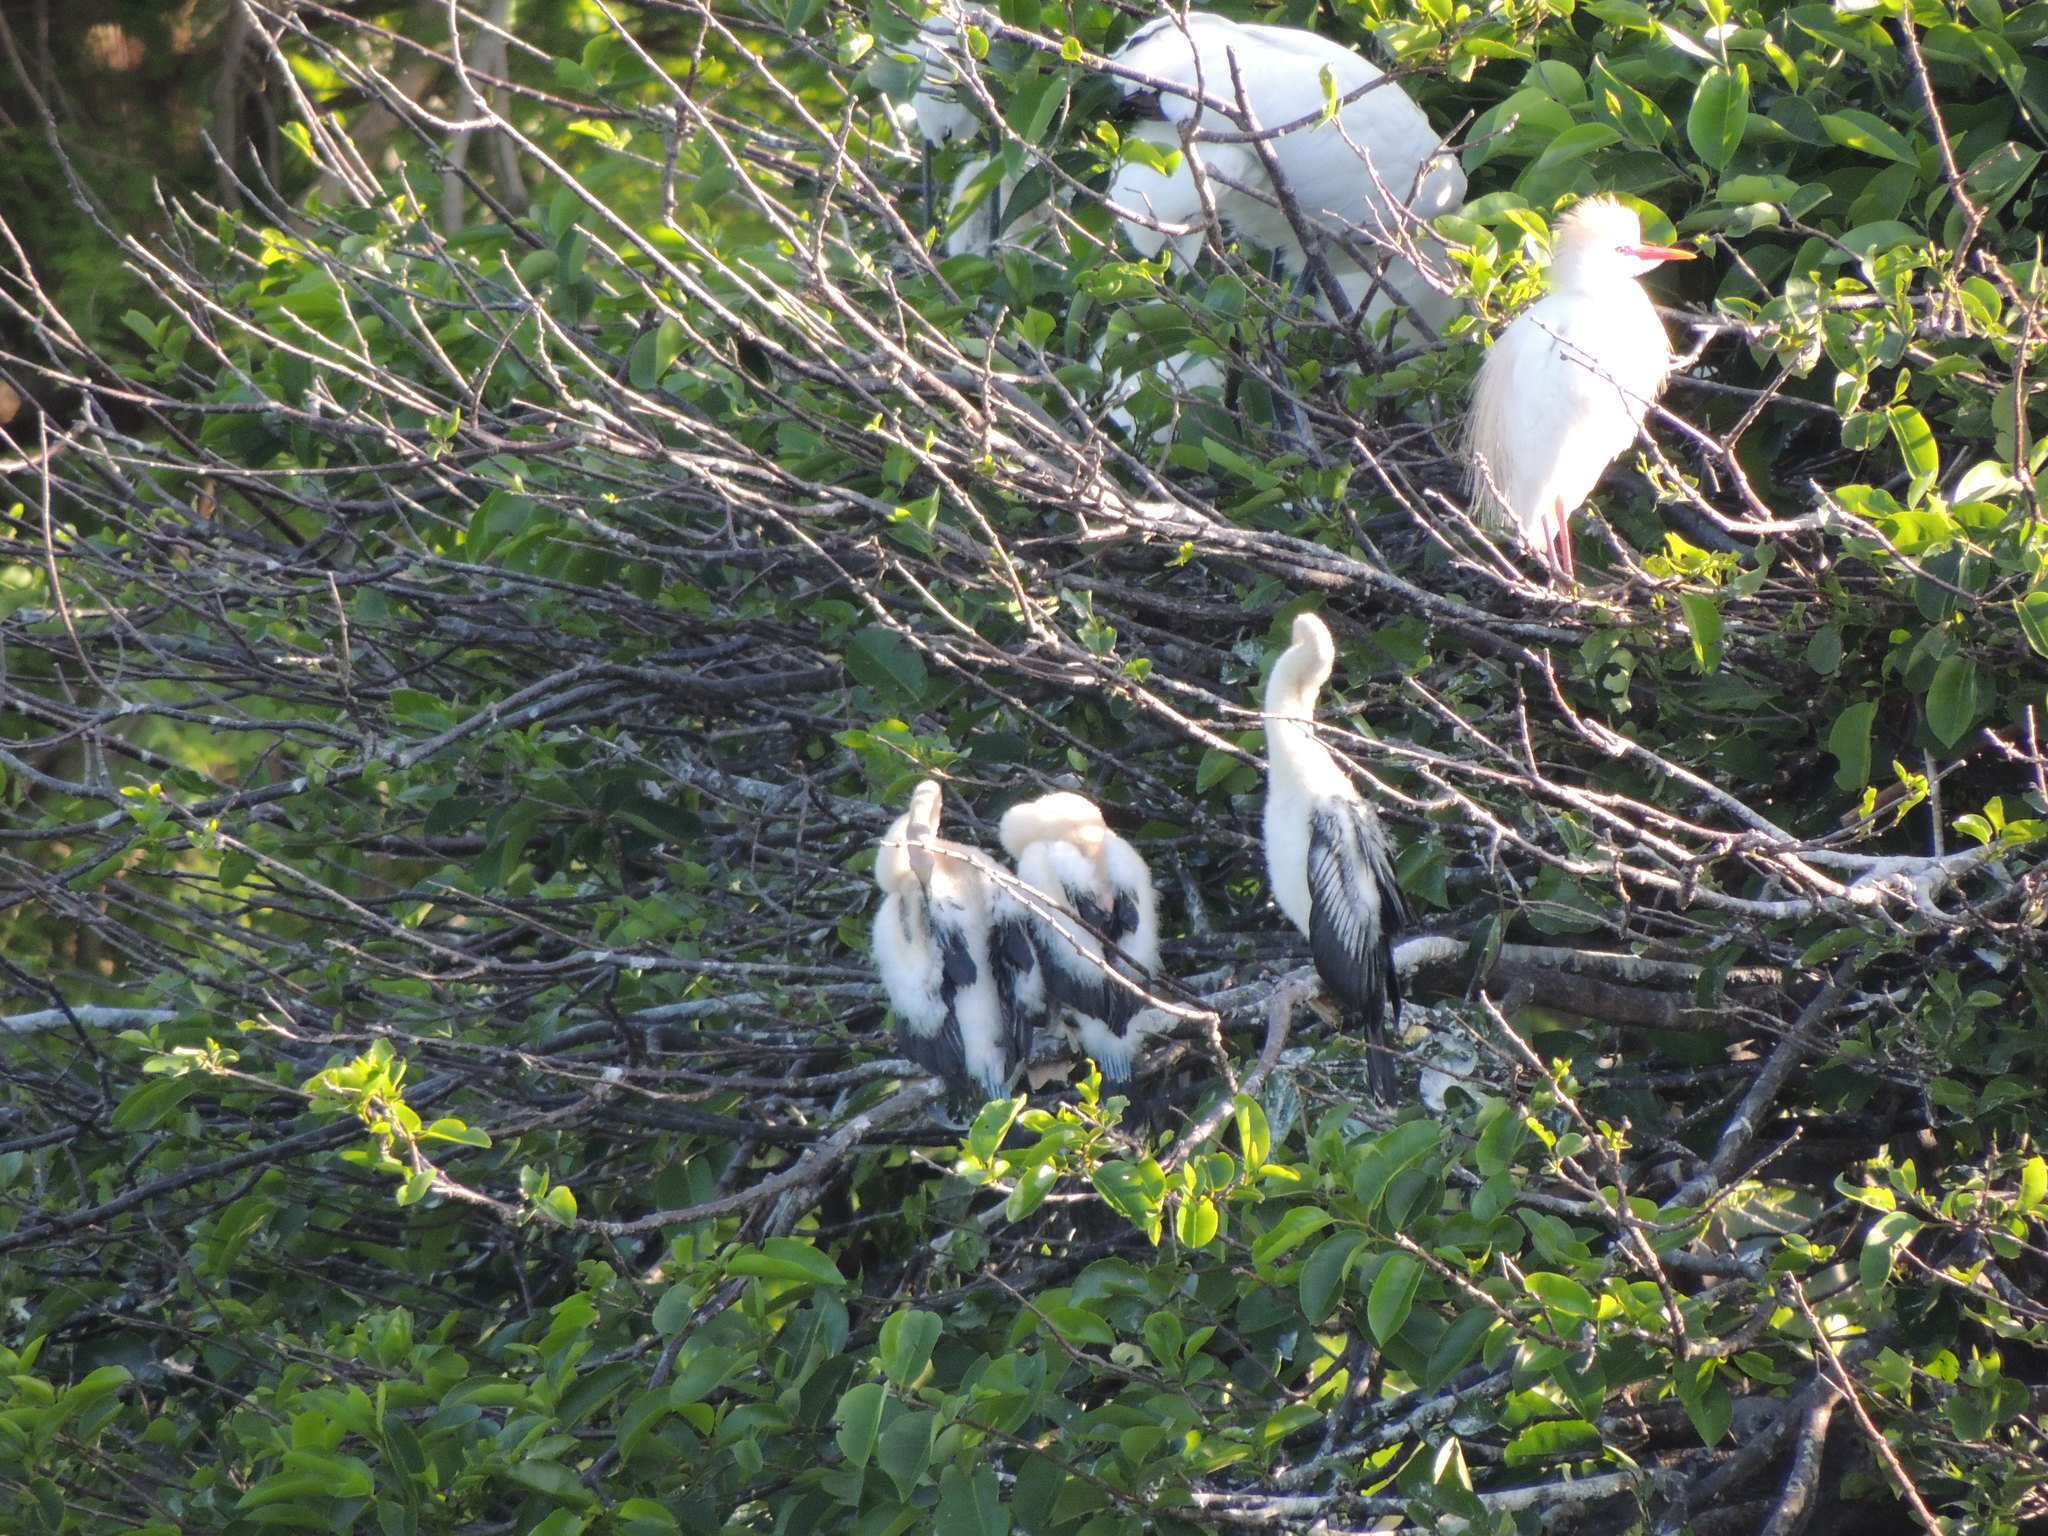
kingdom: Animalia
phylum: Chordata
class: Aves
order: Suliformes
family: Anhingidae
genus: Anhinga
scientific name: Anhinga anhinga
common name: Anhinga
